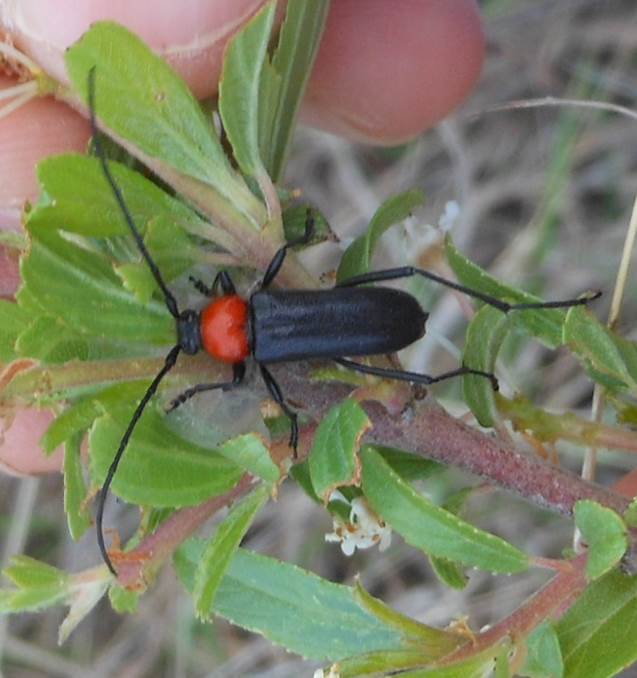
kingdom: Animalia
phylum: Arthropoda
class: Insecta
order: Coleoptera
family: Cerambycidae
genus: Batyle
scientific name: Batyle ignicollis
